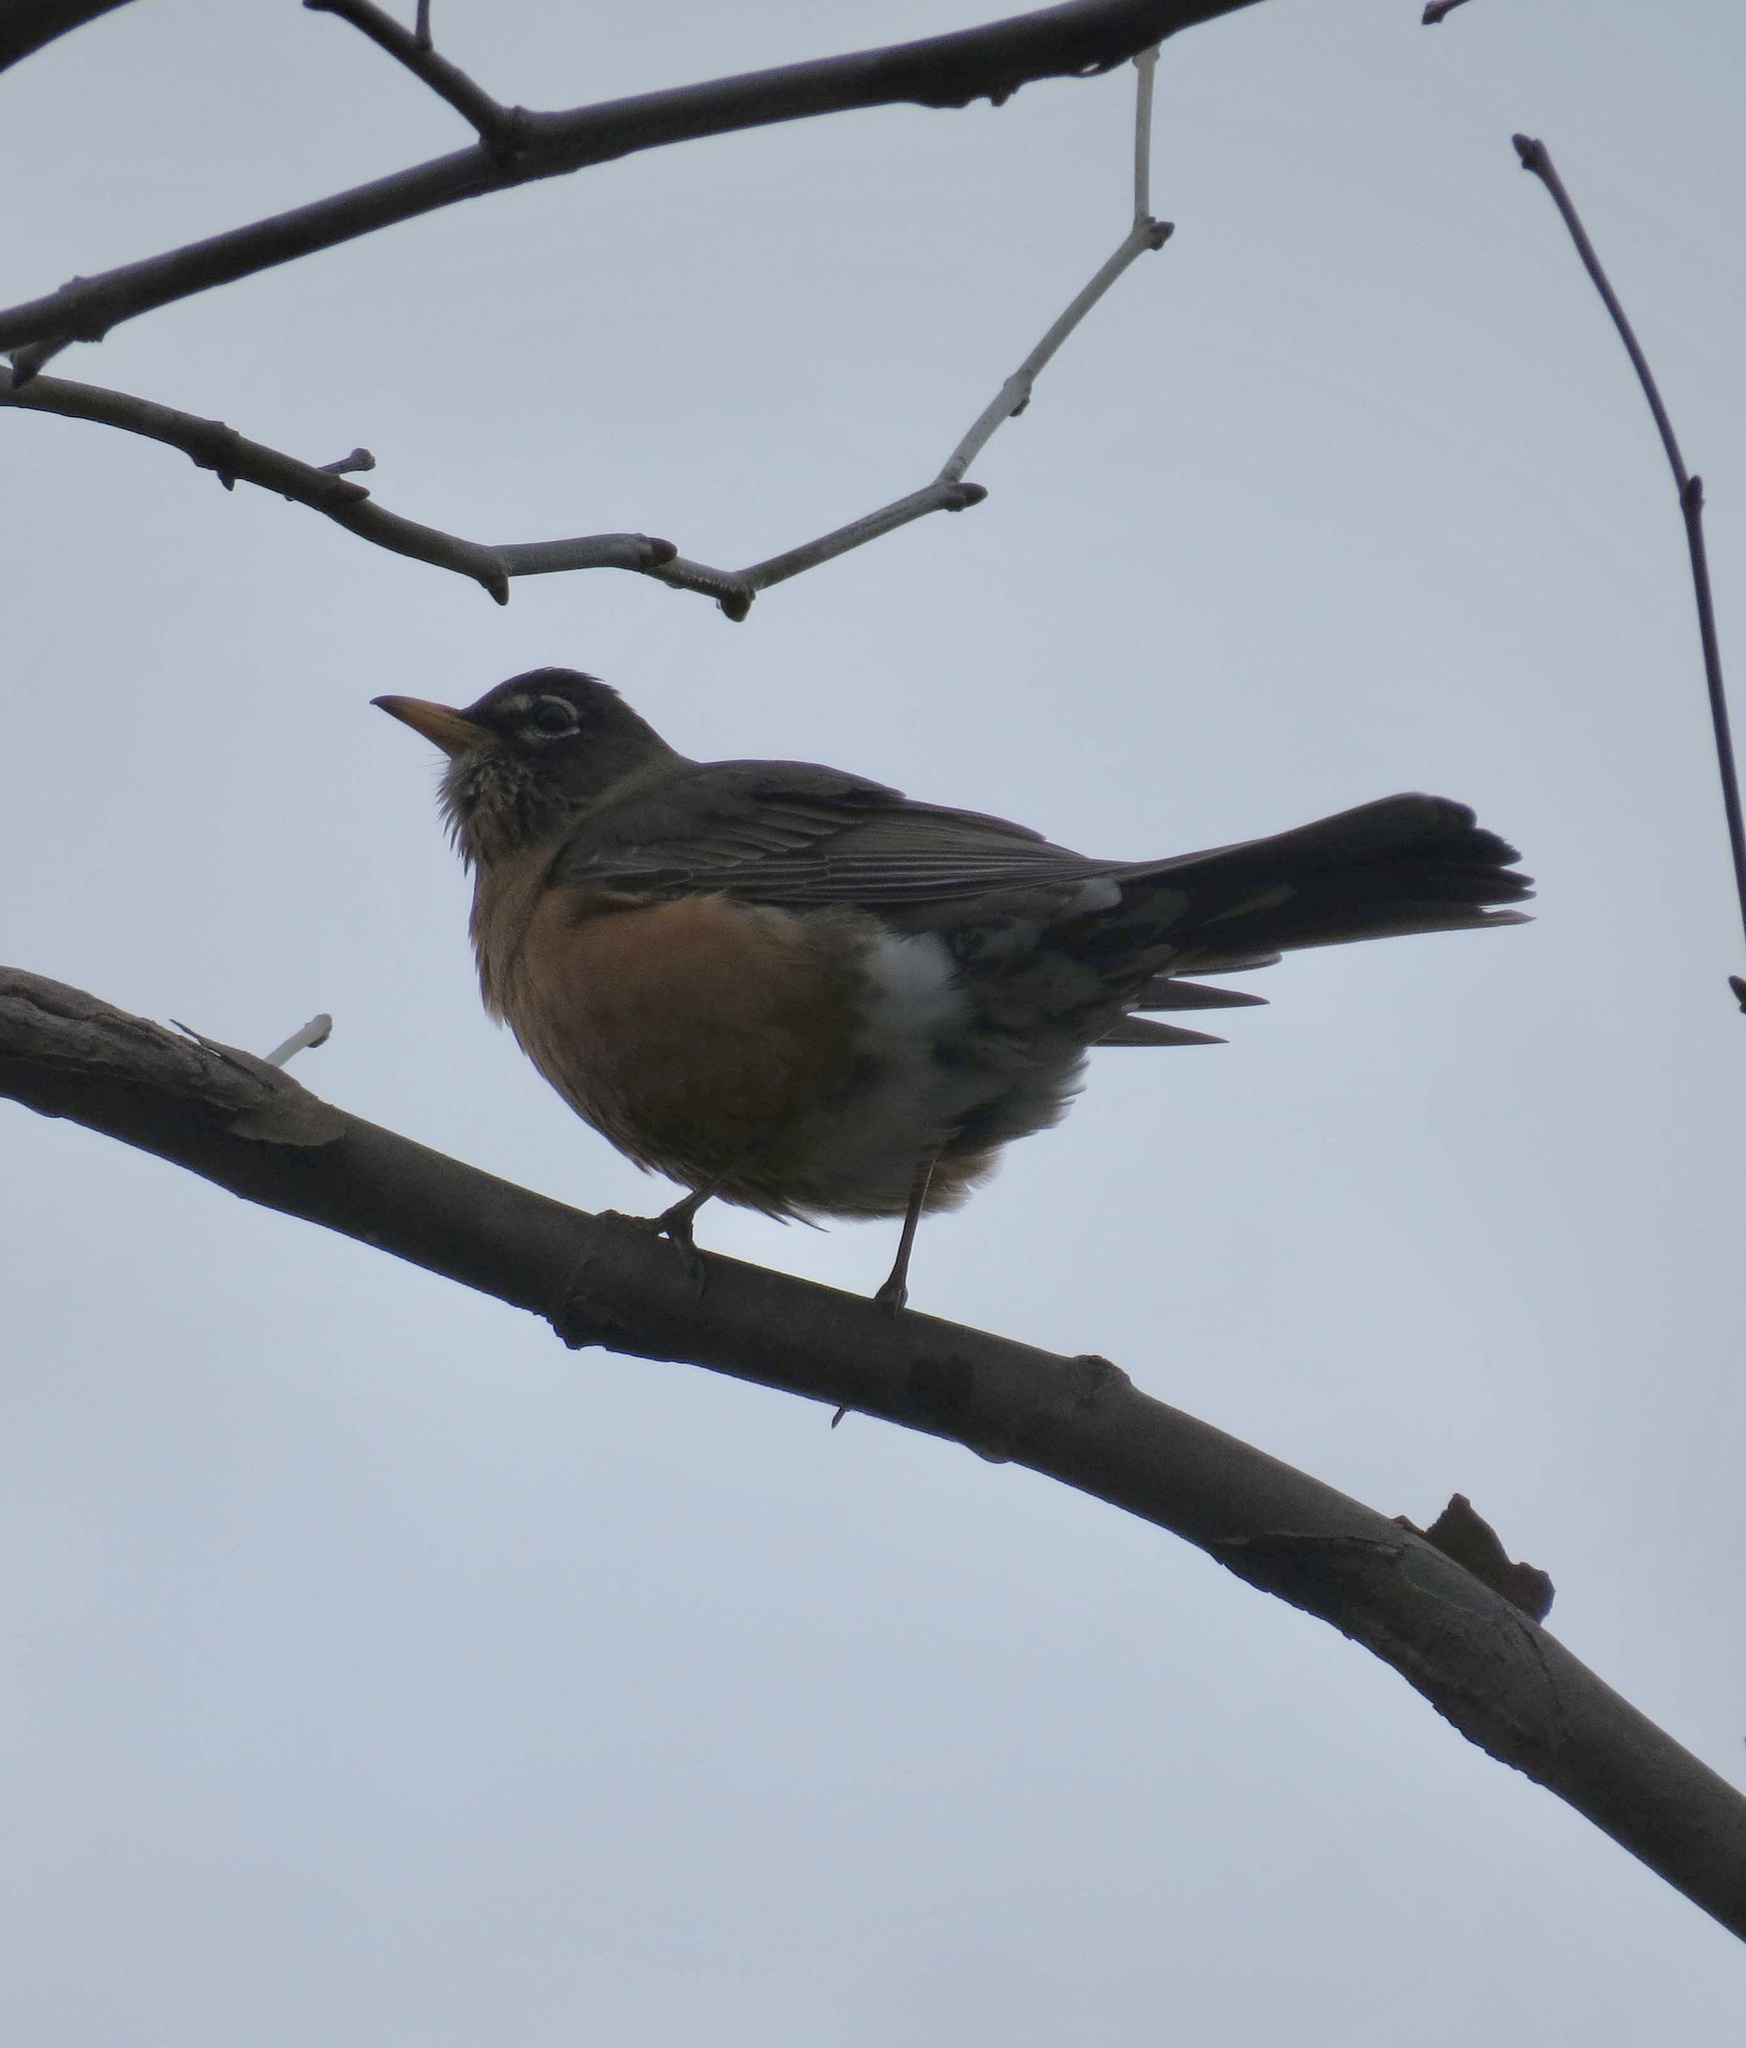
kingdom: Animalia
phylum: Chordata
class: Aves
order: Passeriformes
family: Turdidae
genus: Turdus
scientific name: Turdus migratorius
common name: American robin
